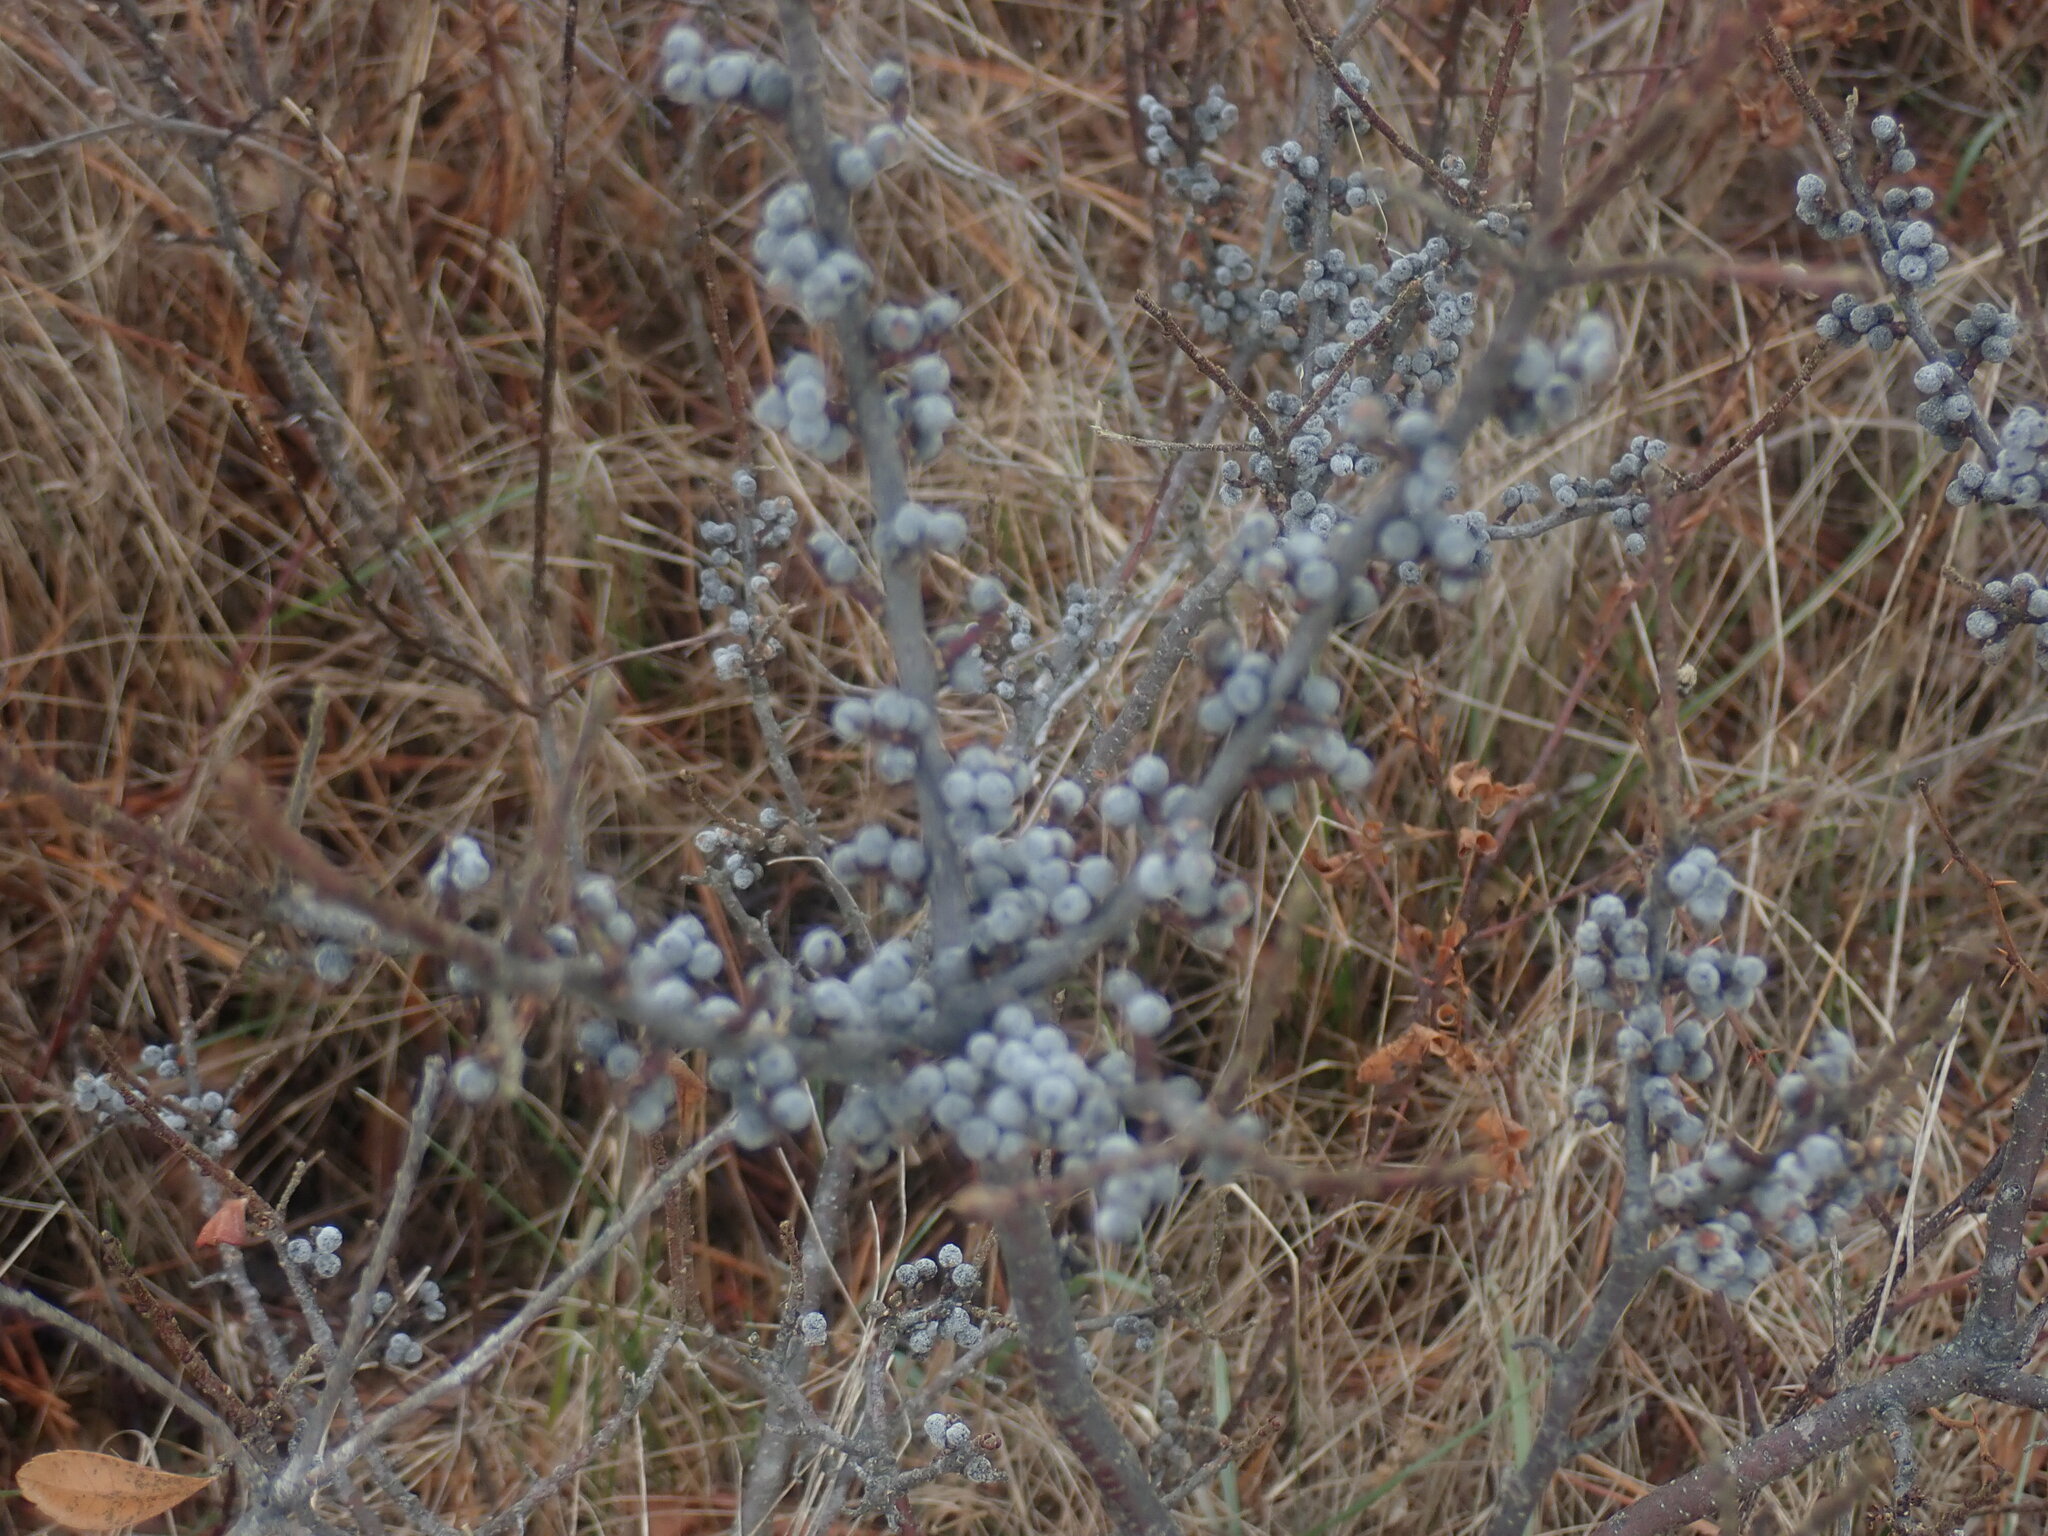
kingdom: Plantae
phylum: Tracheophyta
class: Magnoliopsida
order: Fagales
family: Myricaceae
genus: Morella
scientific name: Morella pensylvanica
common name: Northern bayberry
